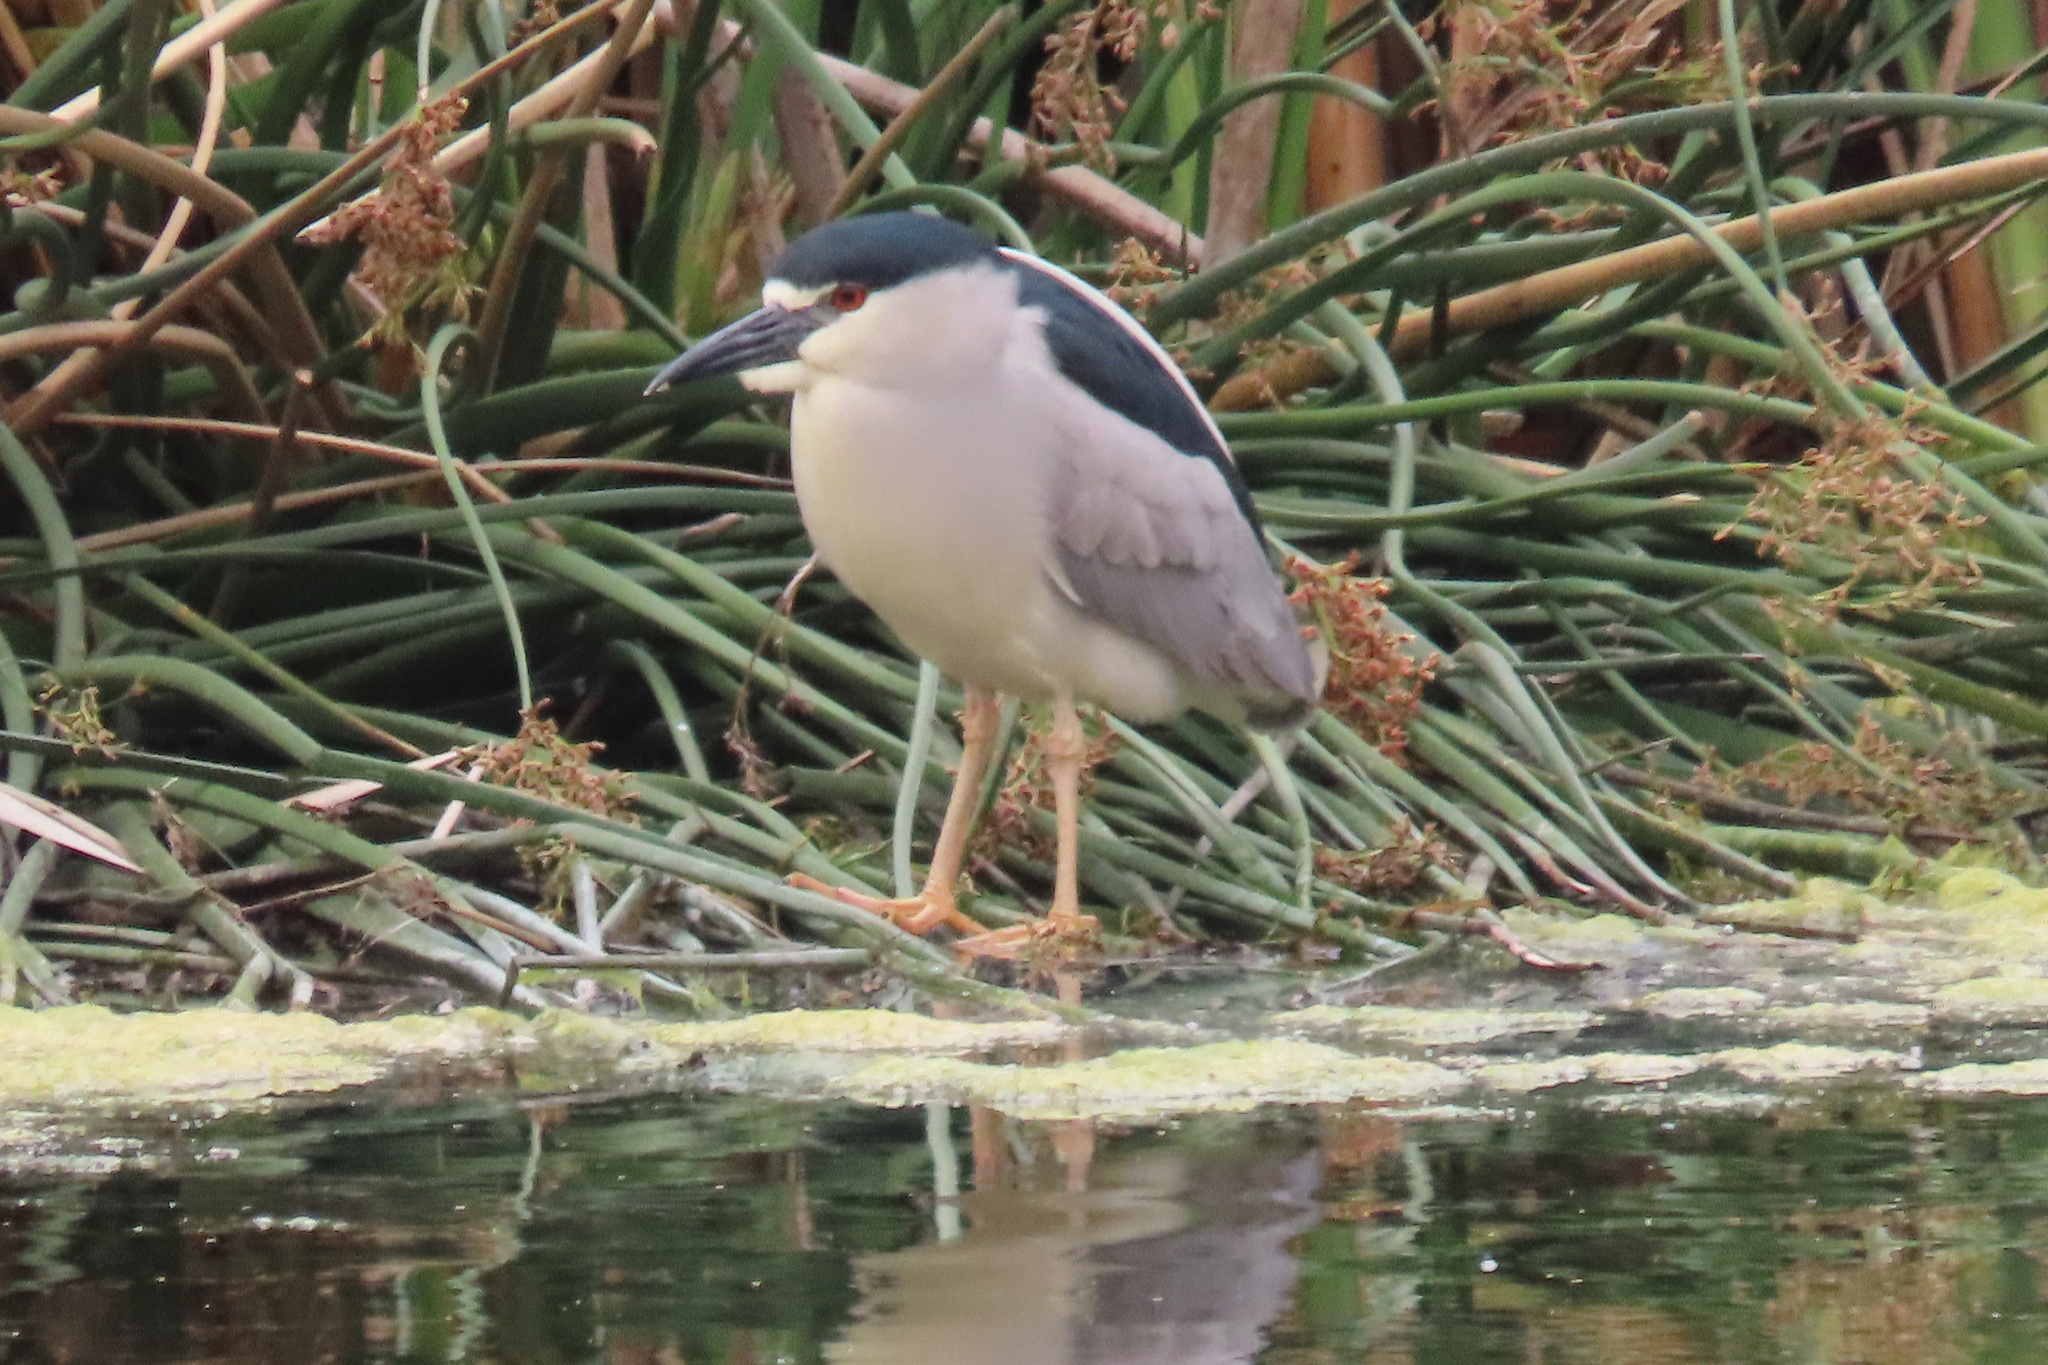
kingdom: Animalia
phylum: Chordata
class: Aves
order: Pelecaniformes
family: Ardeidae
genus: Nycticorax
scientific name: Nycticorax nycticorax
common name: Black-crowned night heron
